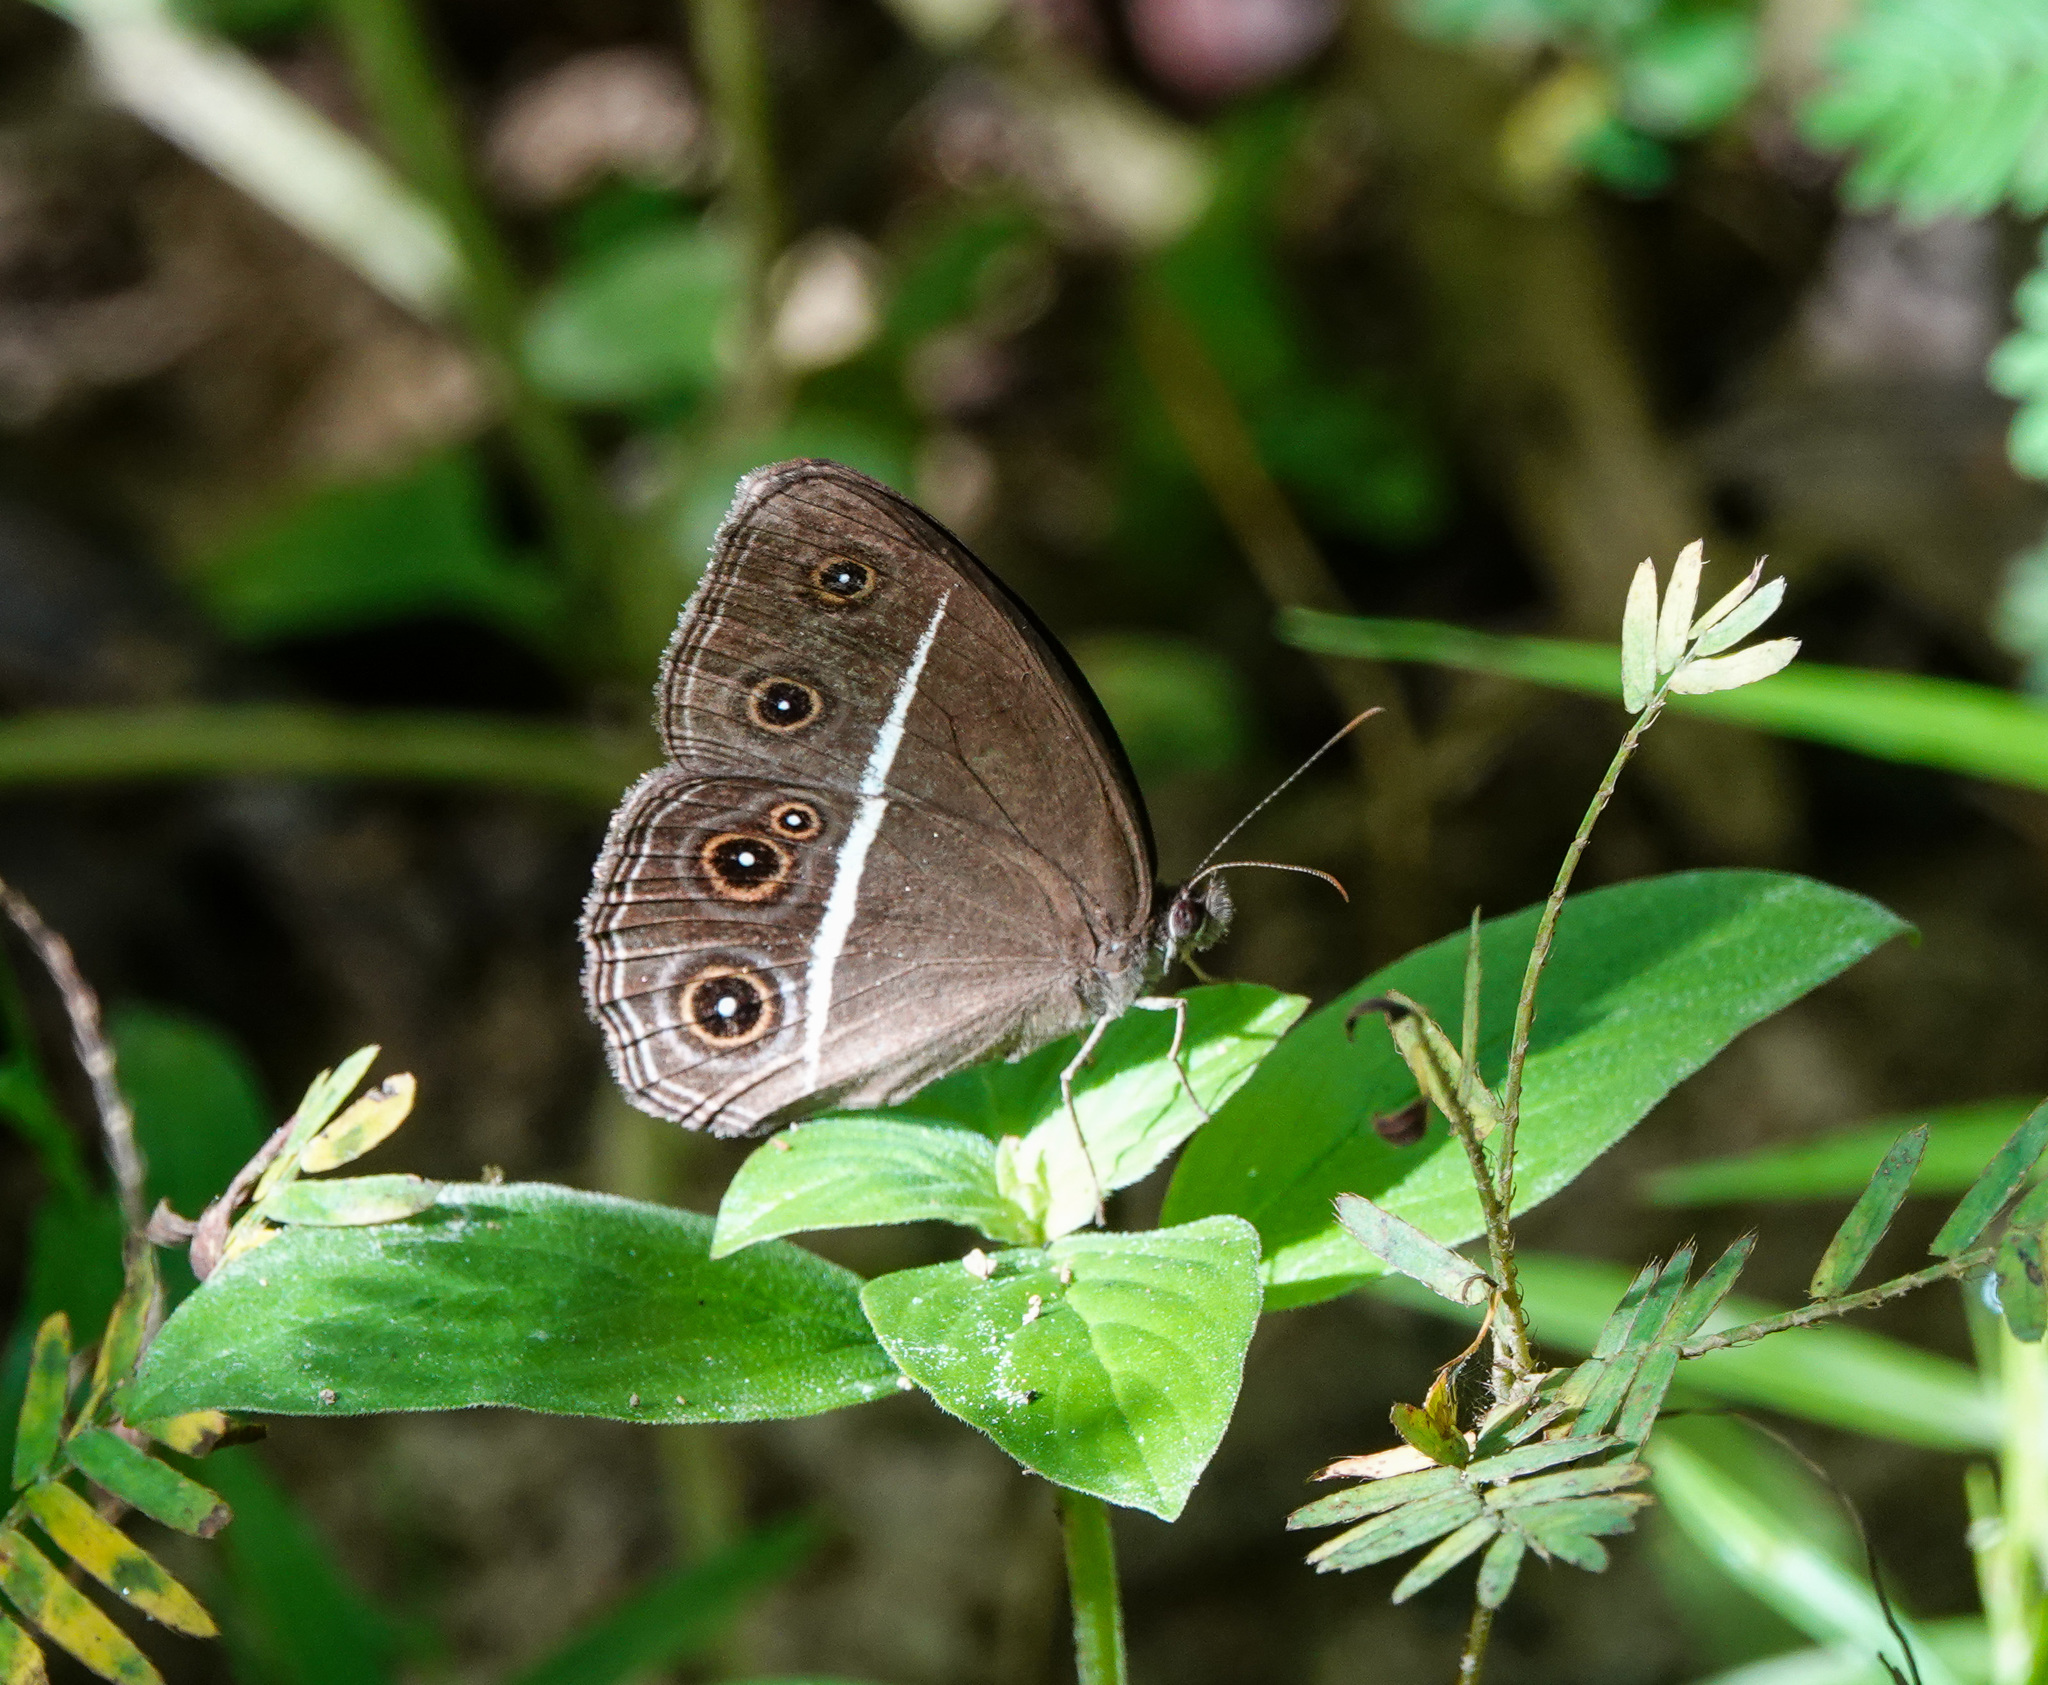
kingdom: Animalia
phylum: Arthropoda
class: Insecta
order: Lepidoptera
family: Nymphalidae
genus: Orsotriaena
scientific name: Orsotriaena medus
